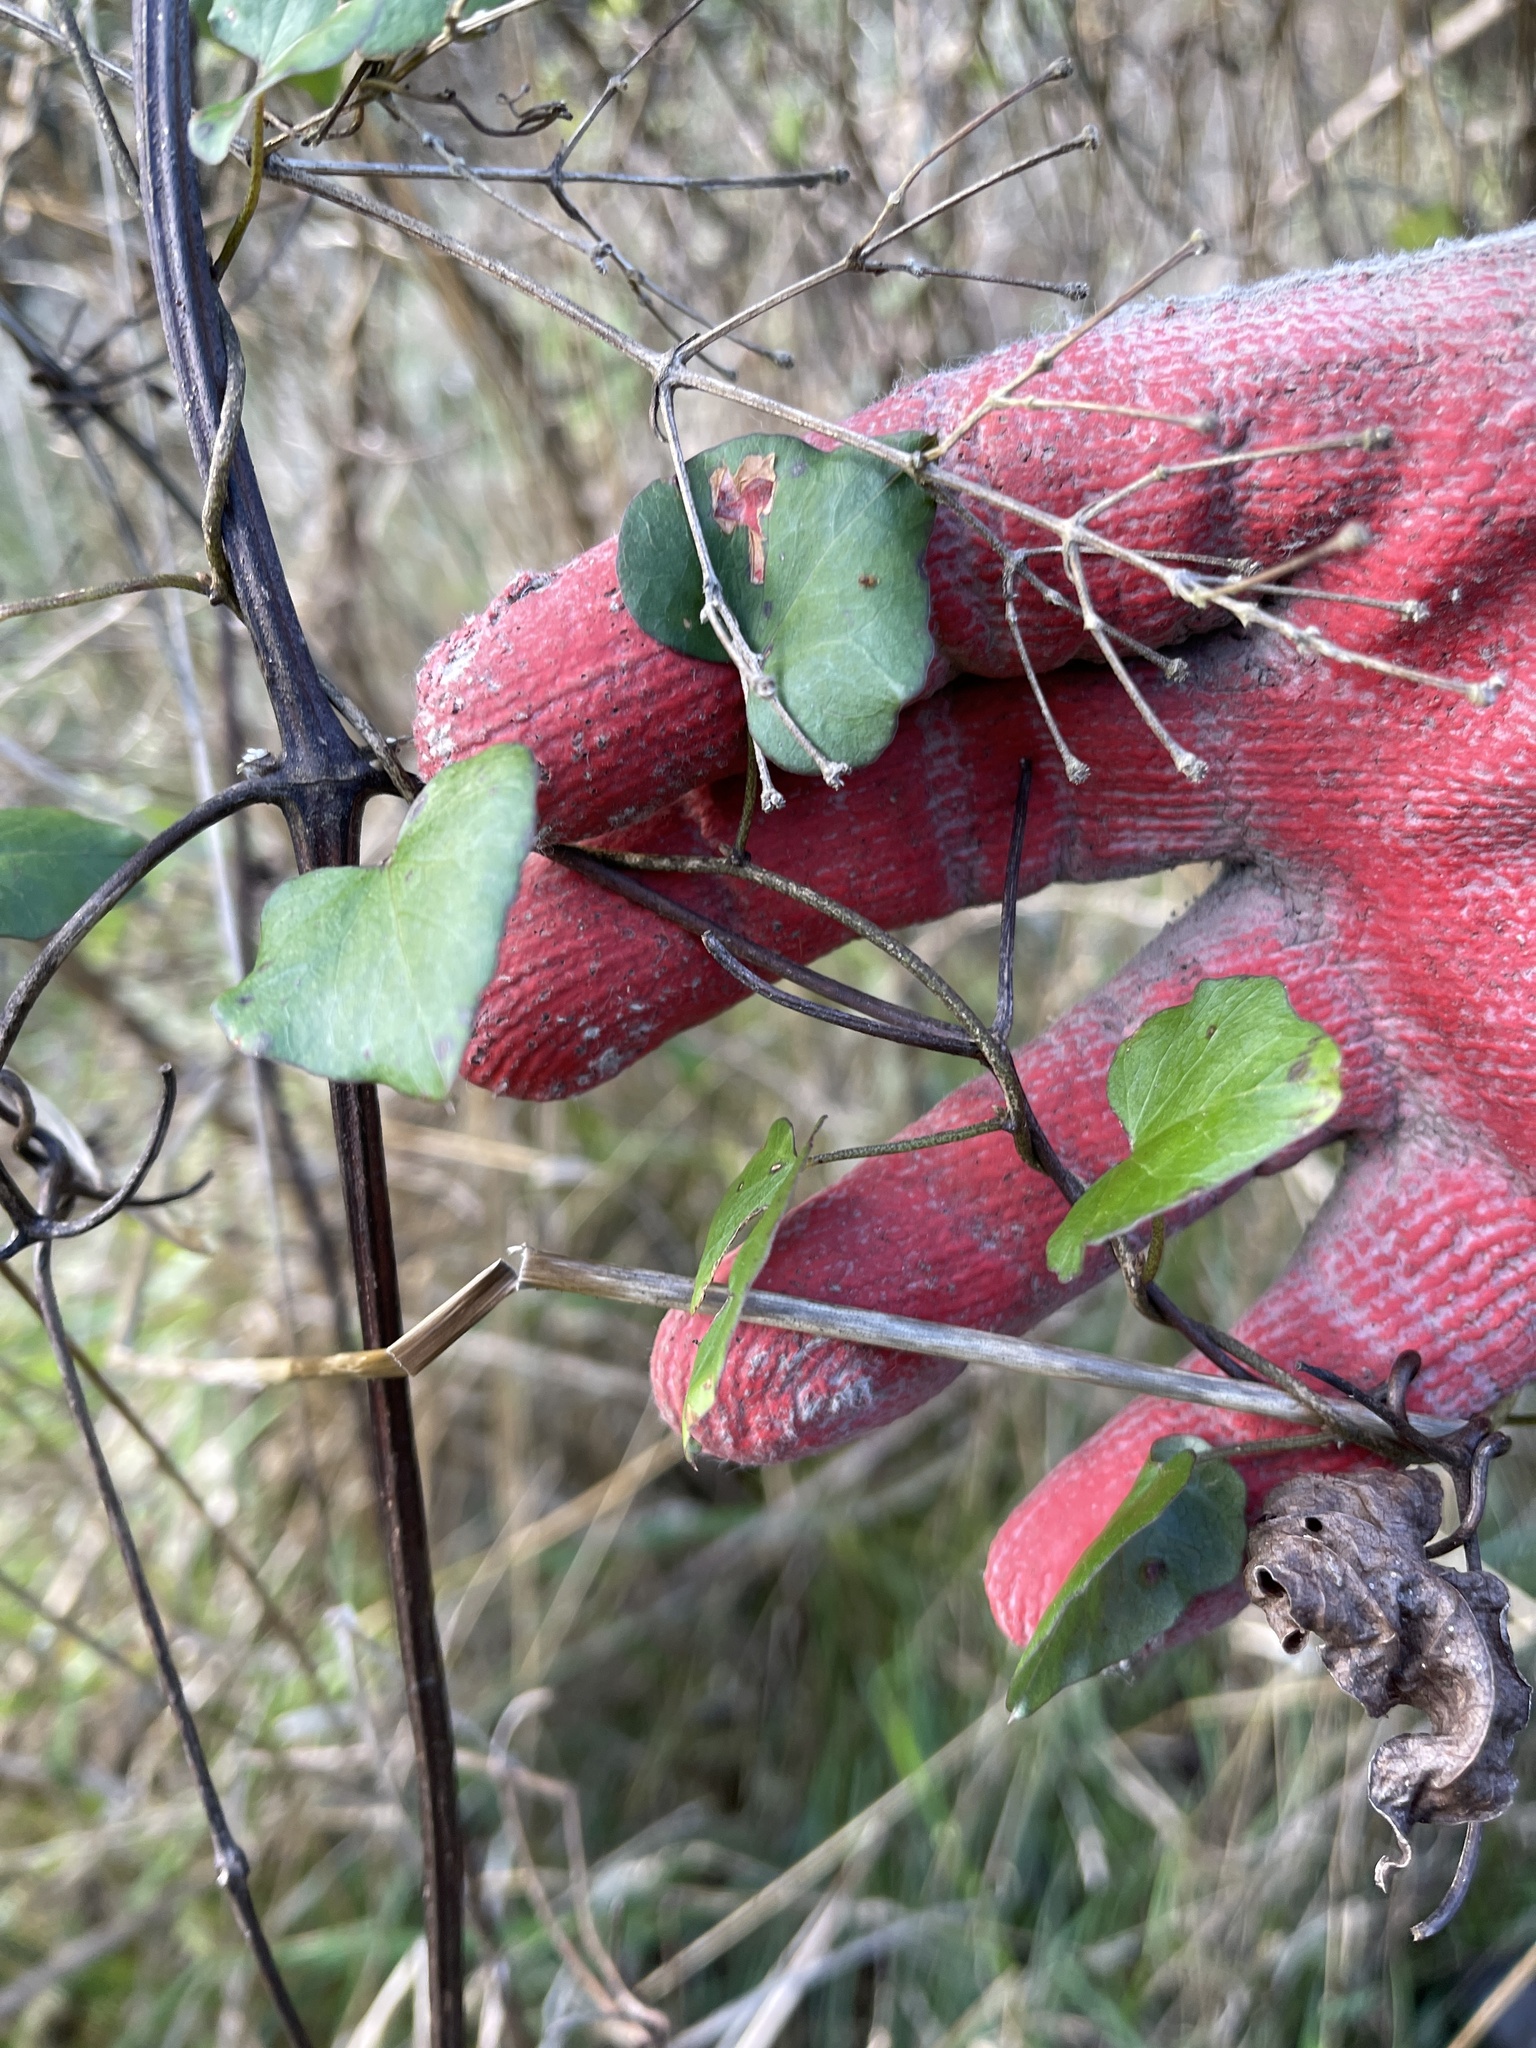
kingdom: Plantae
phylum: Tracheophyta
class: Magnoliopsida
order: Solanales
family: Convolvulaceae
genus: Calystegia
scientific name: Calystegia tuguriorum
